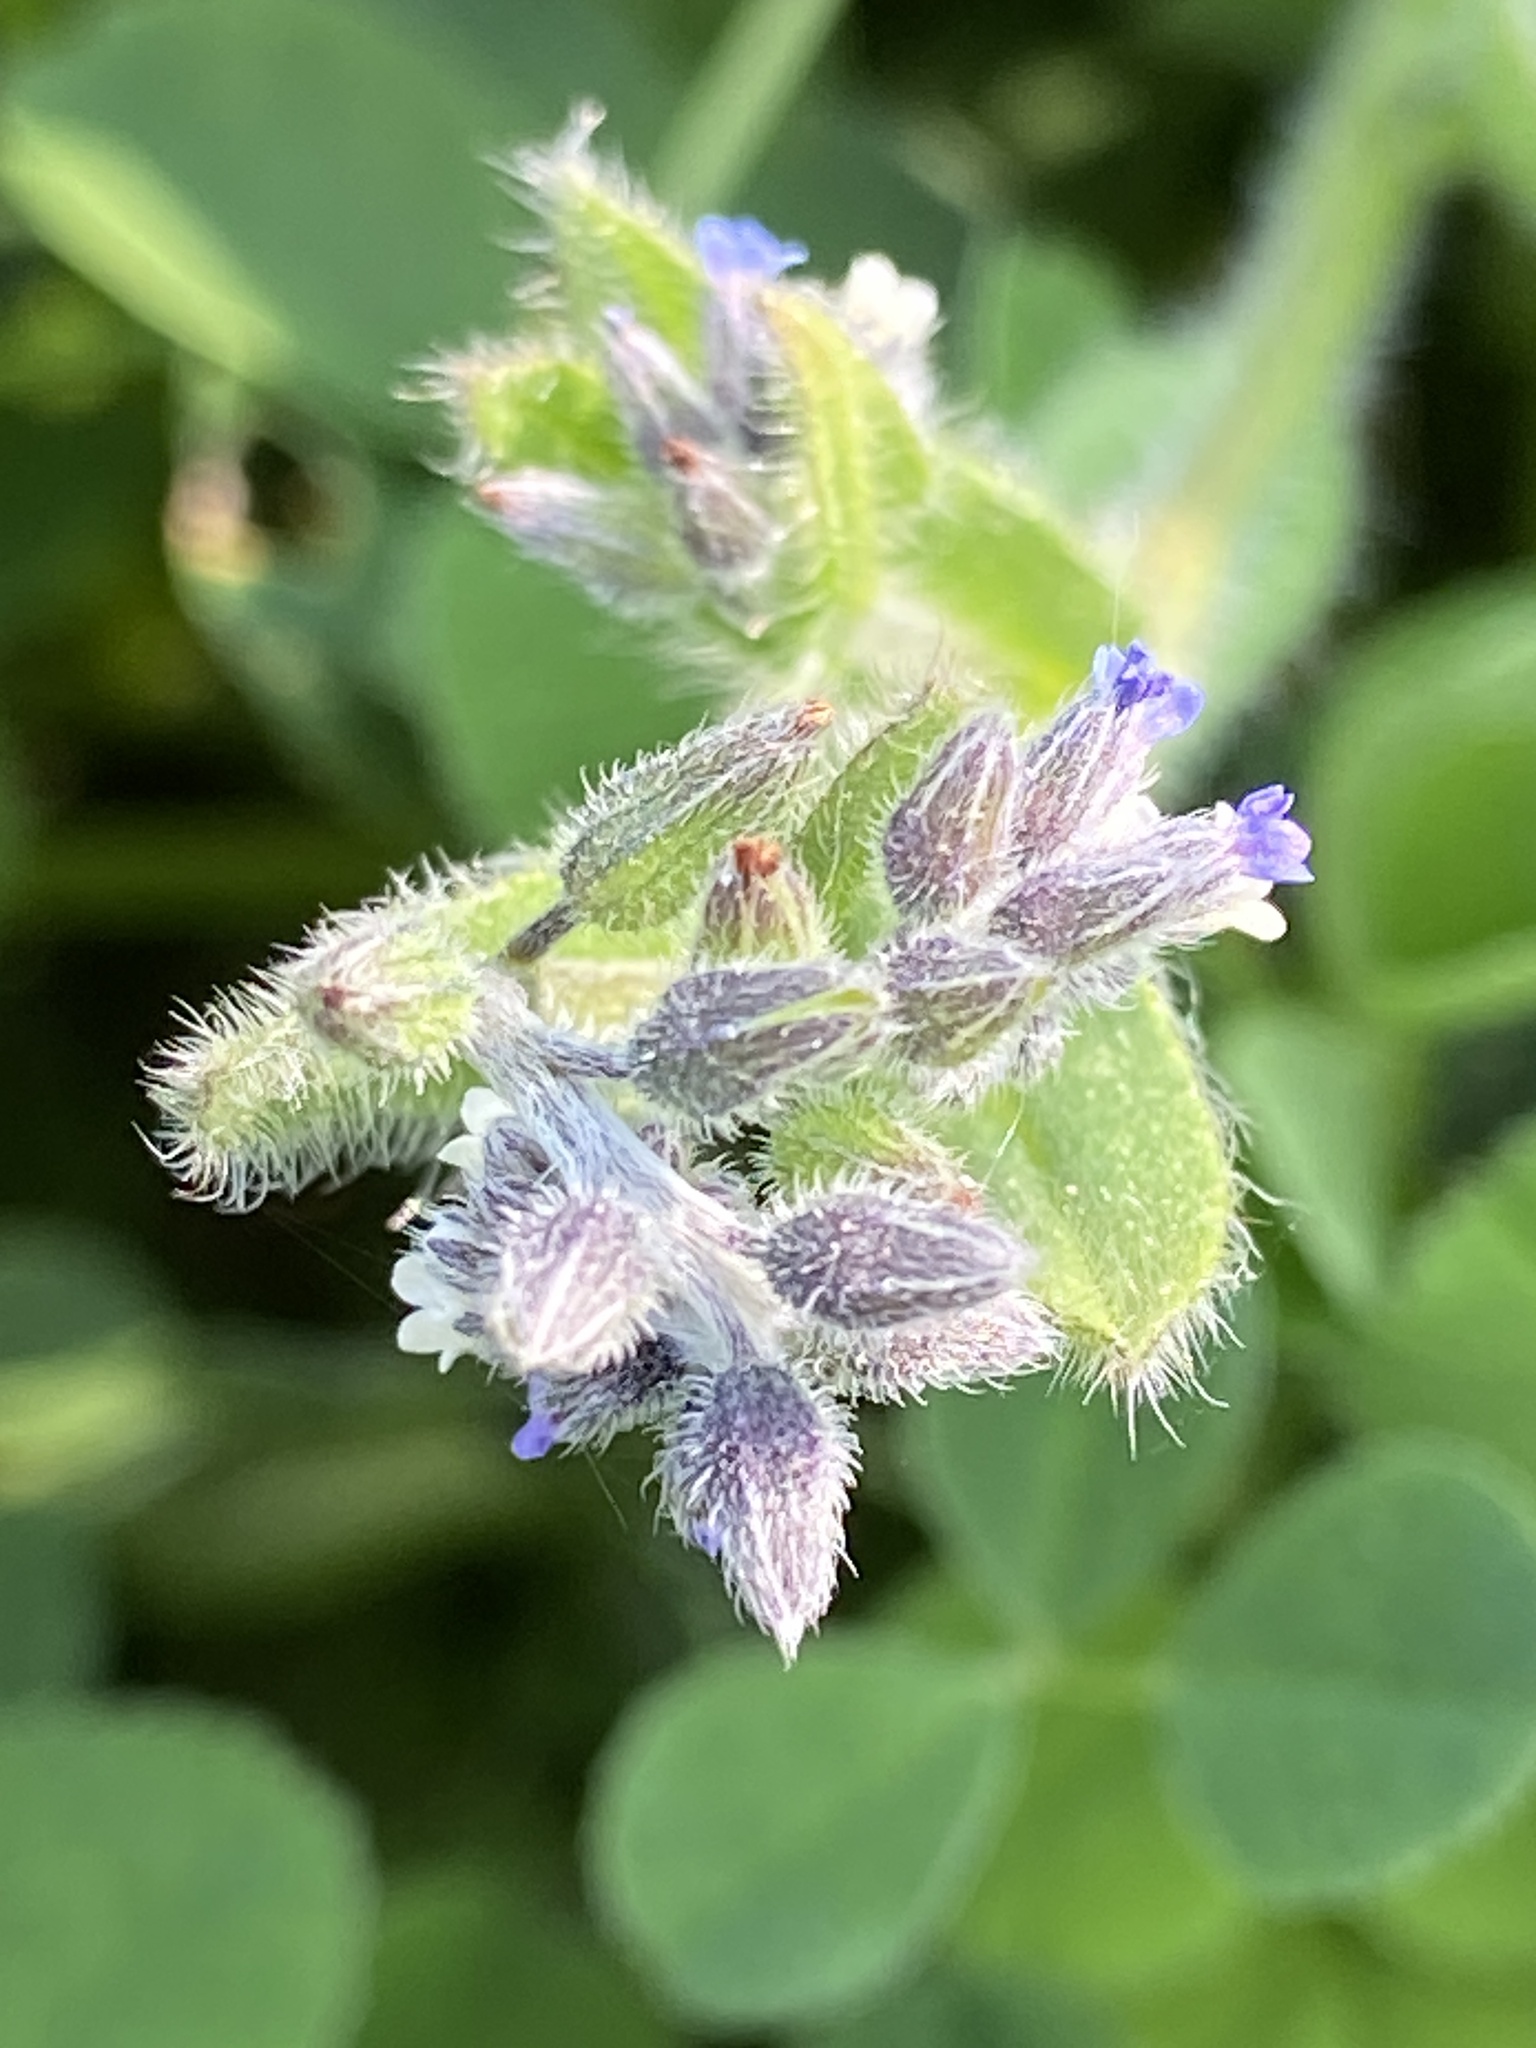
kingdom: Plantae
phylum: Tracheophyta
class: Magnoliopsida
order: Boraginales
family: Boraginaceae
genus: Myosotis
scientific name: Myosotis discolor
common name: Changing forget-me-not
